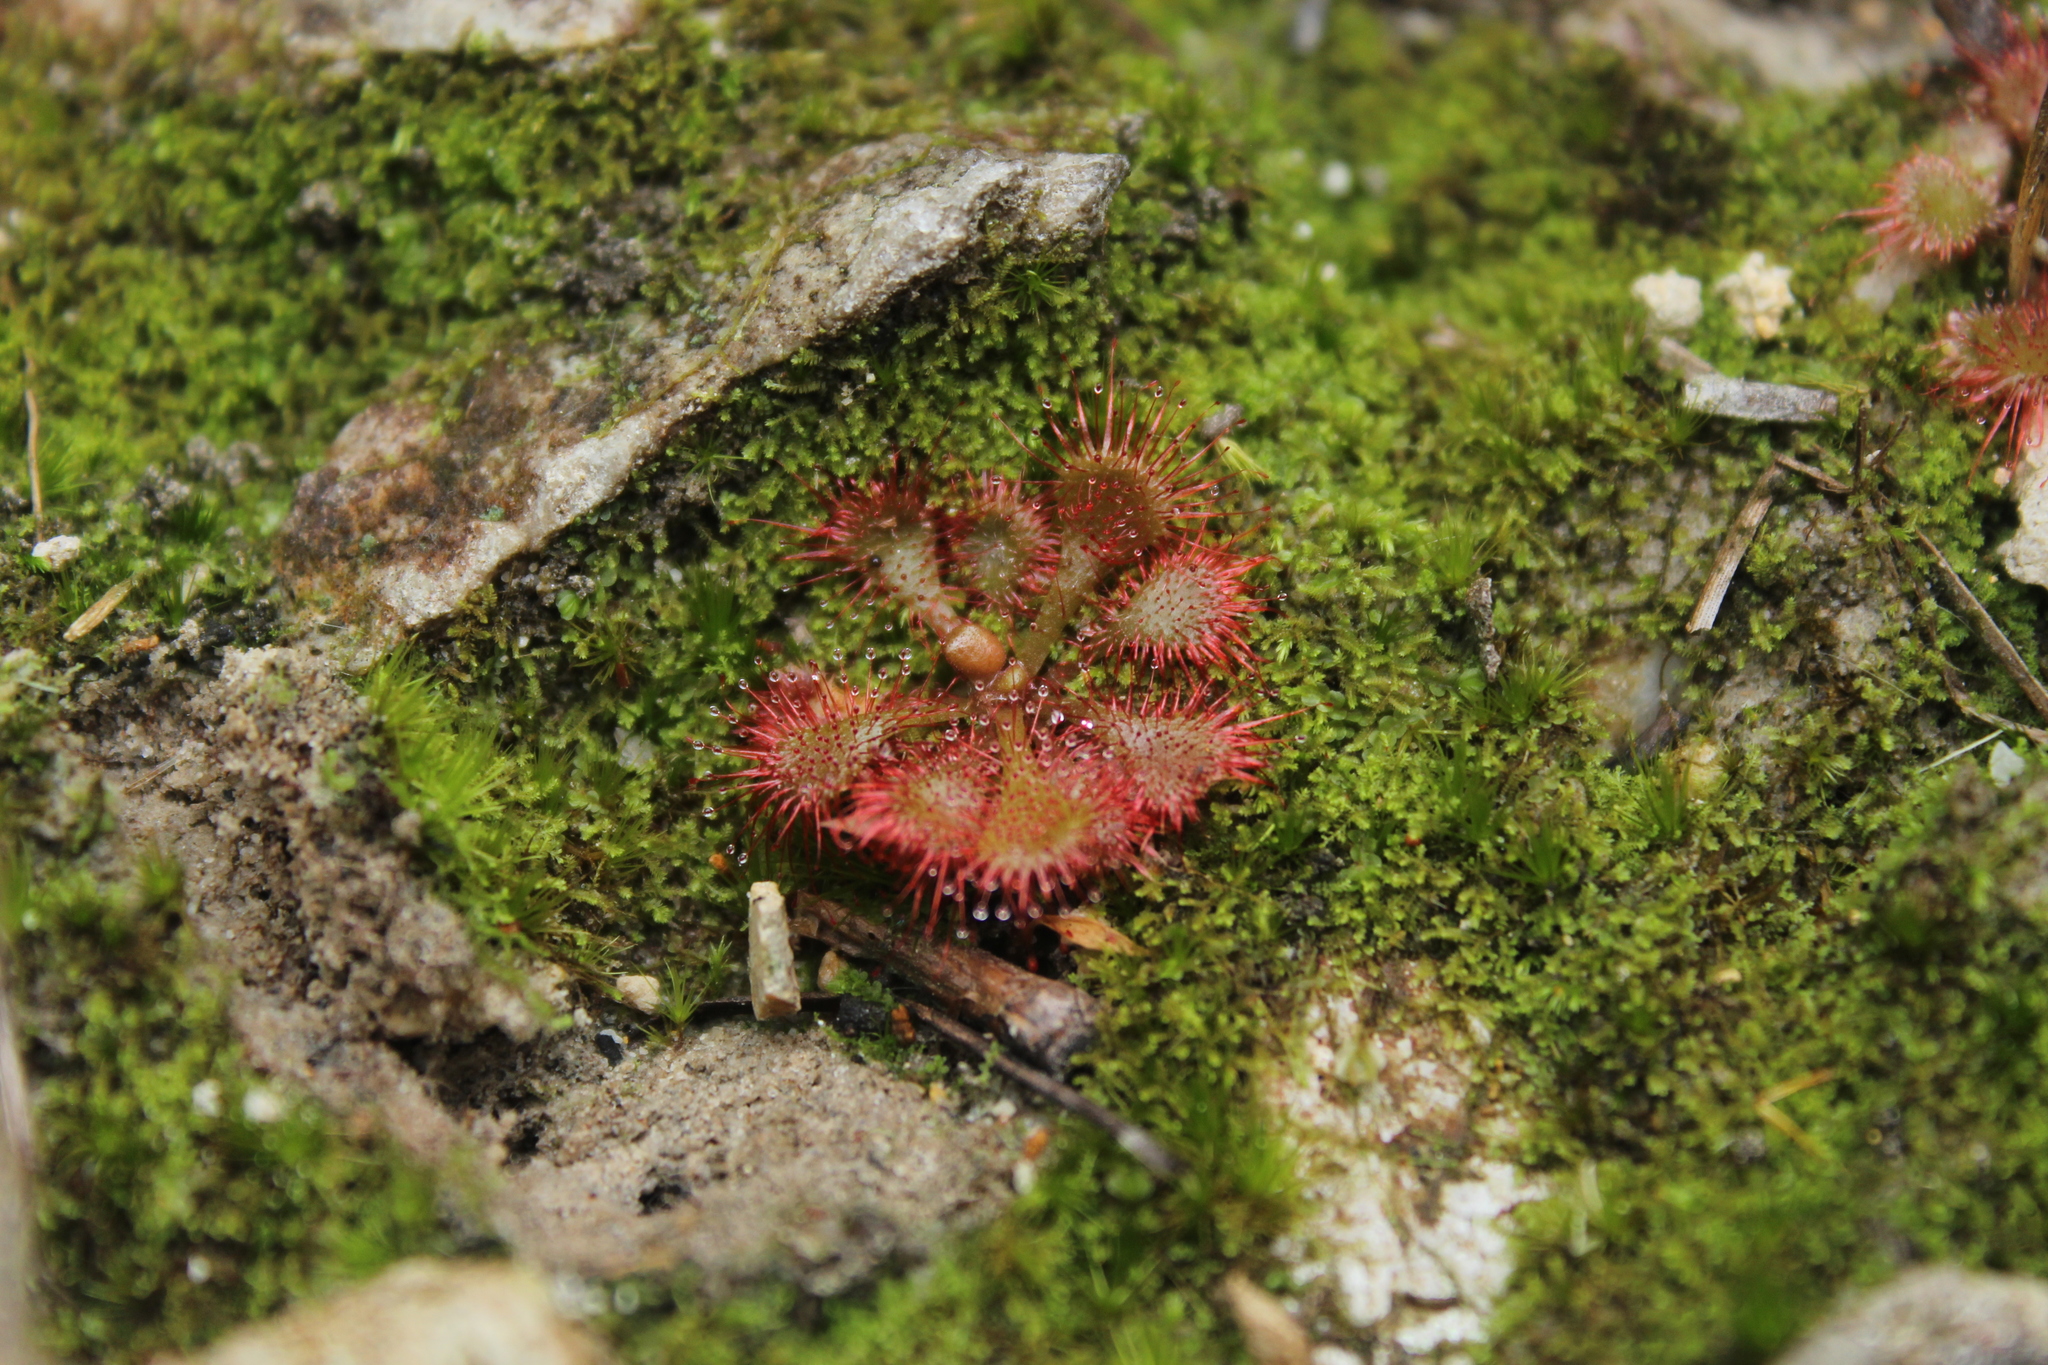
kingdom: Plantae
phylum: Tracheophyta
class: Magnoliopsida
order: Caryophyllales
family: Droseraceae
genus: Drosera
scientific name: Drosera brevifolia
